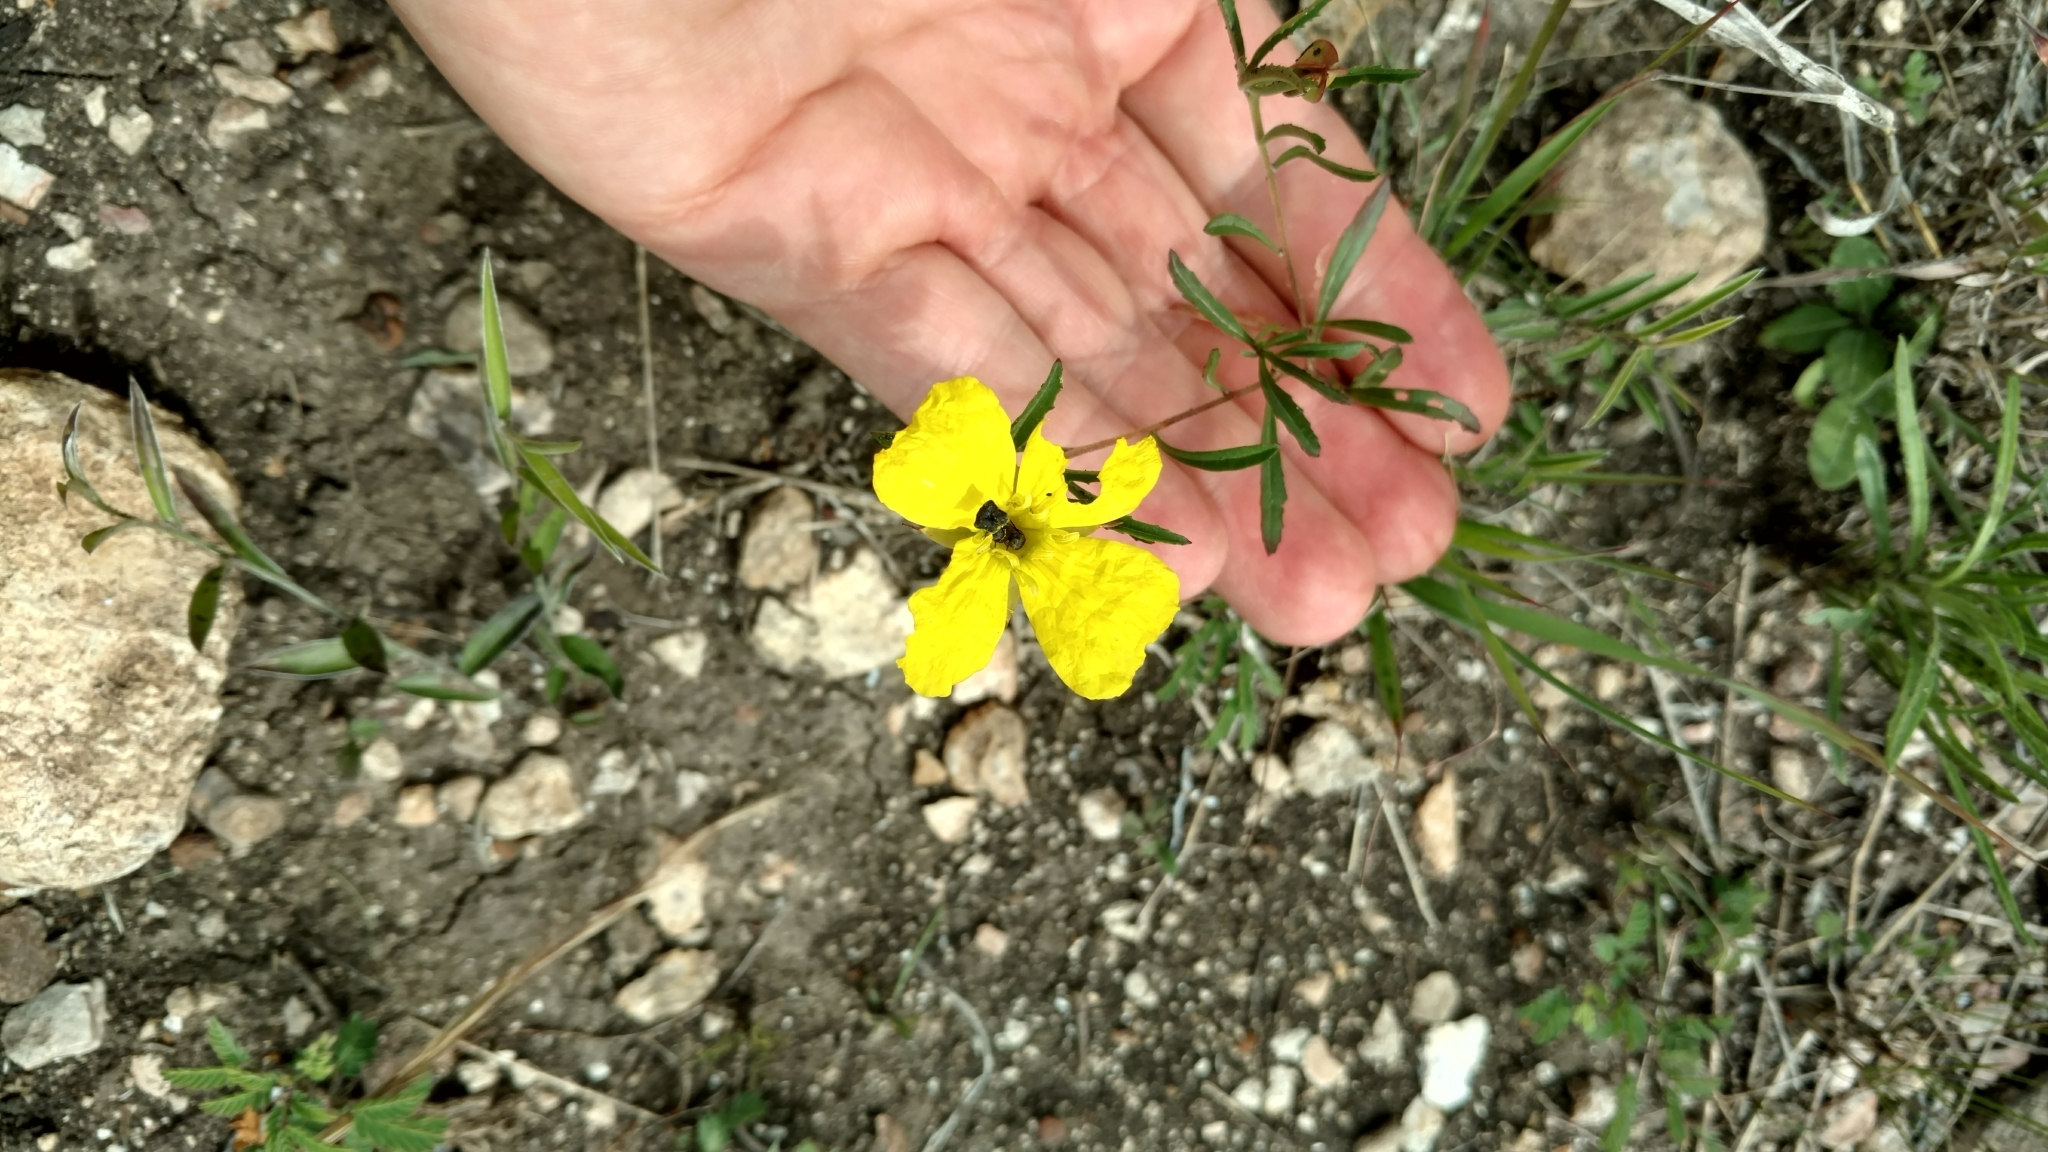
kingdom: Plantae
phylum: Tracheophyta
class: Magnoliopsida
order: Myrtales
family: Onagraceae
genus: Oenothera
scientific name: Oenothera
